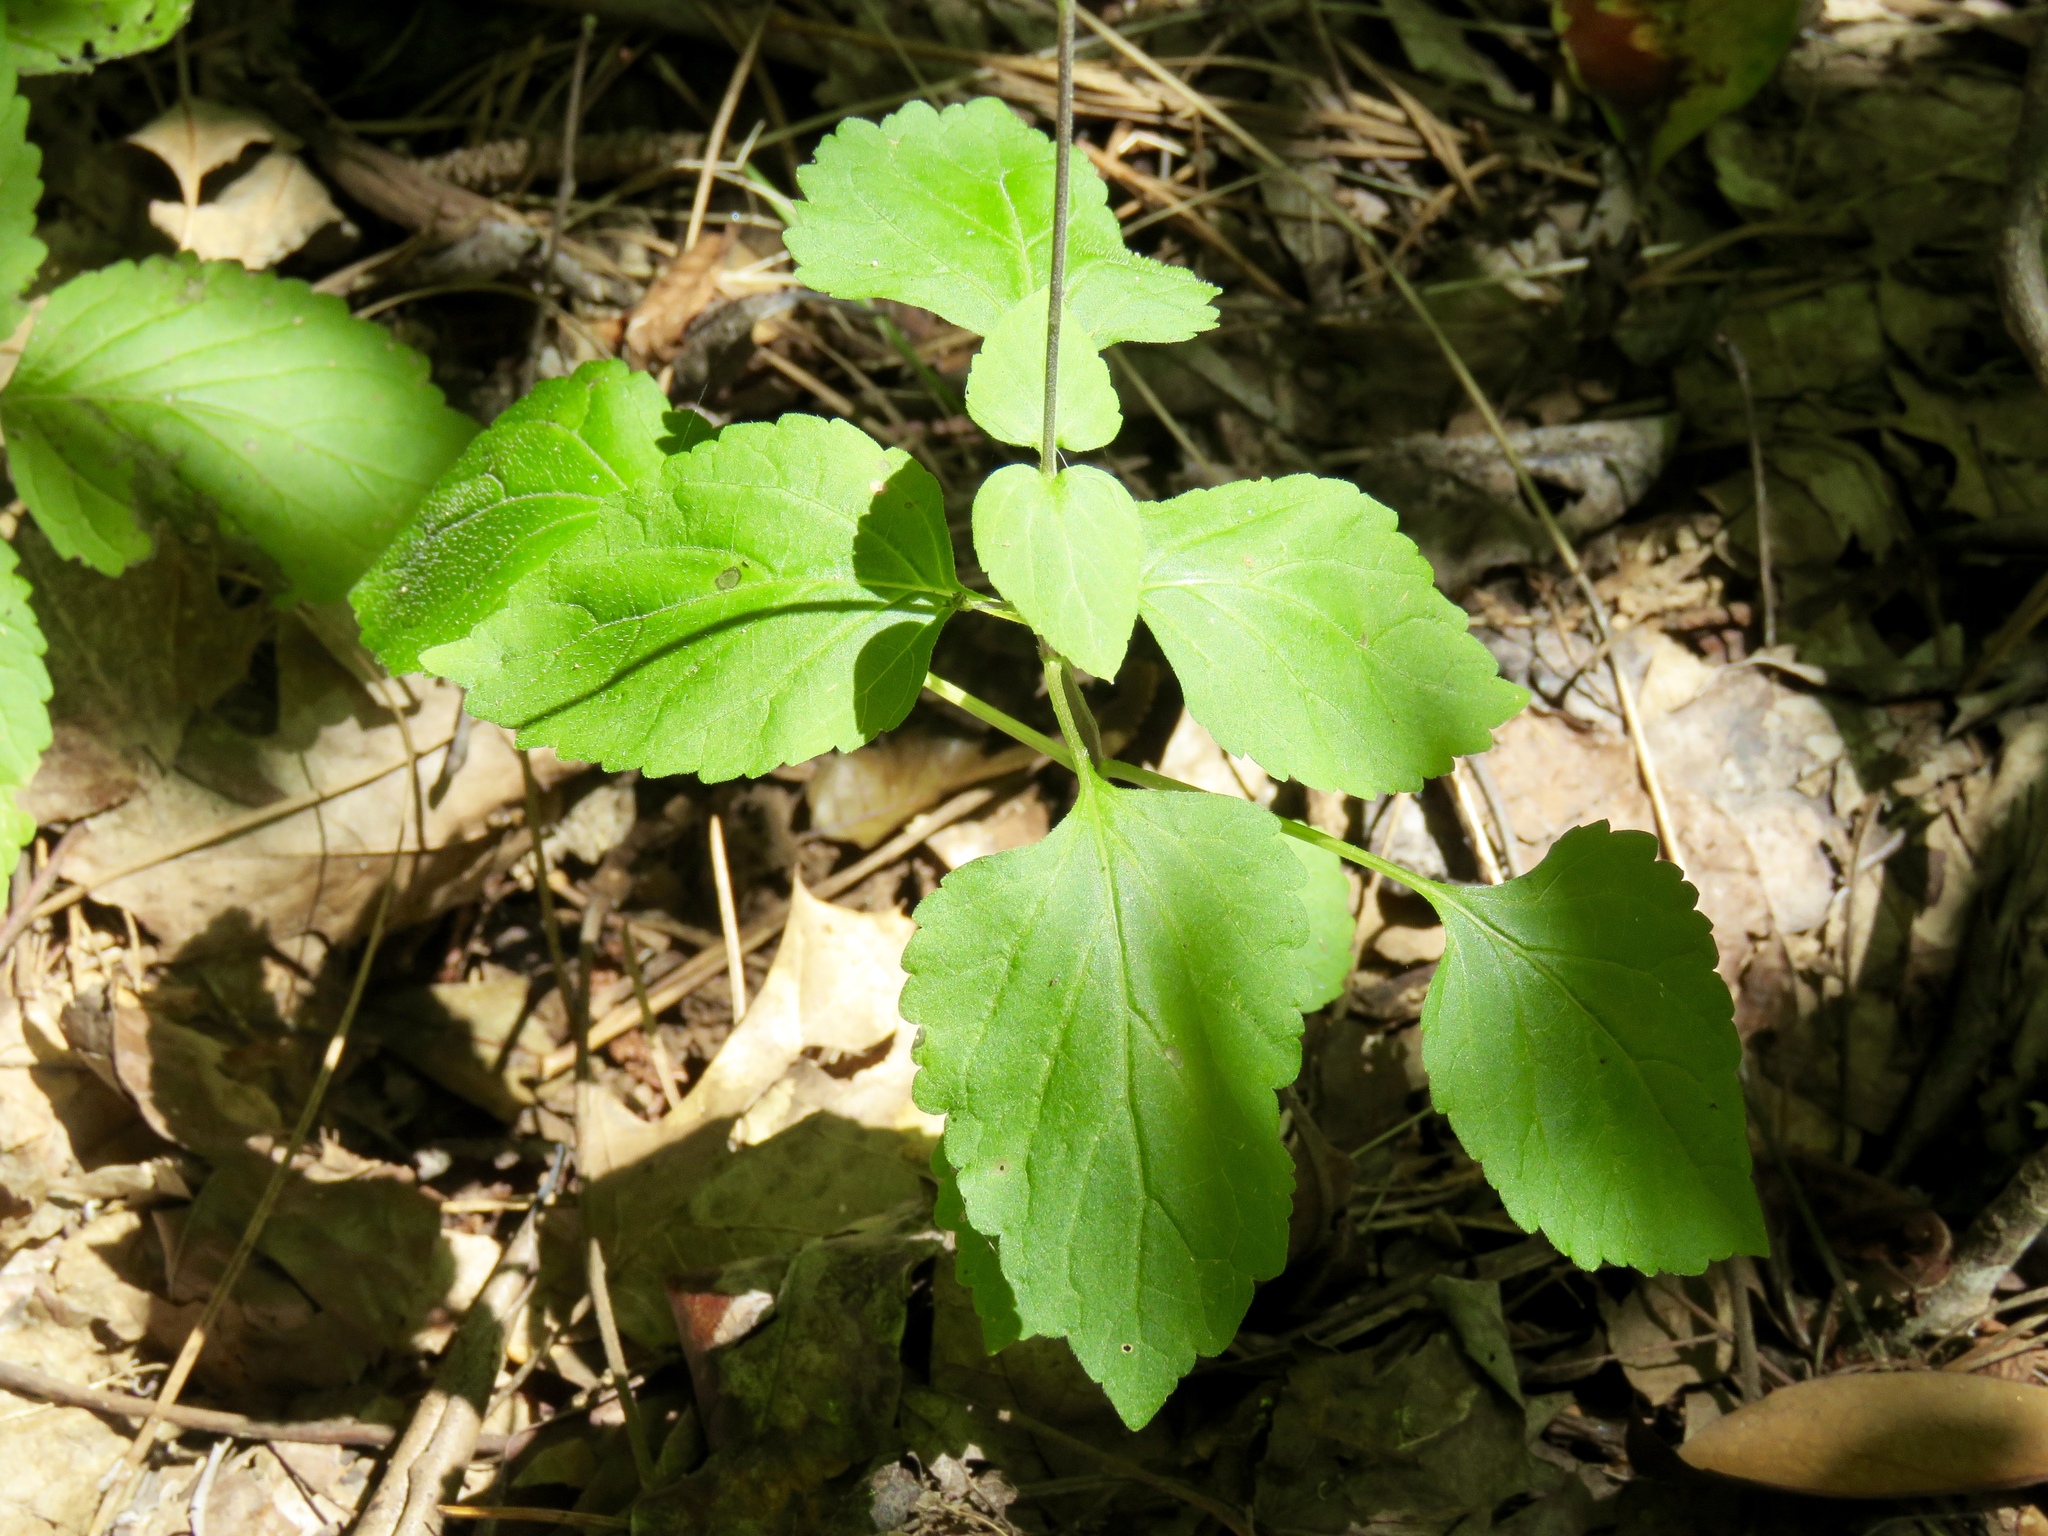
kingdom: Plantae
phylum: Tracheophyta
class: Magnoliopsida
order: Lamiales
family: Phrymaceae
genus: Phryma
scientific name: Phryma leptostachya
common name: American lopseed
